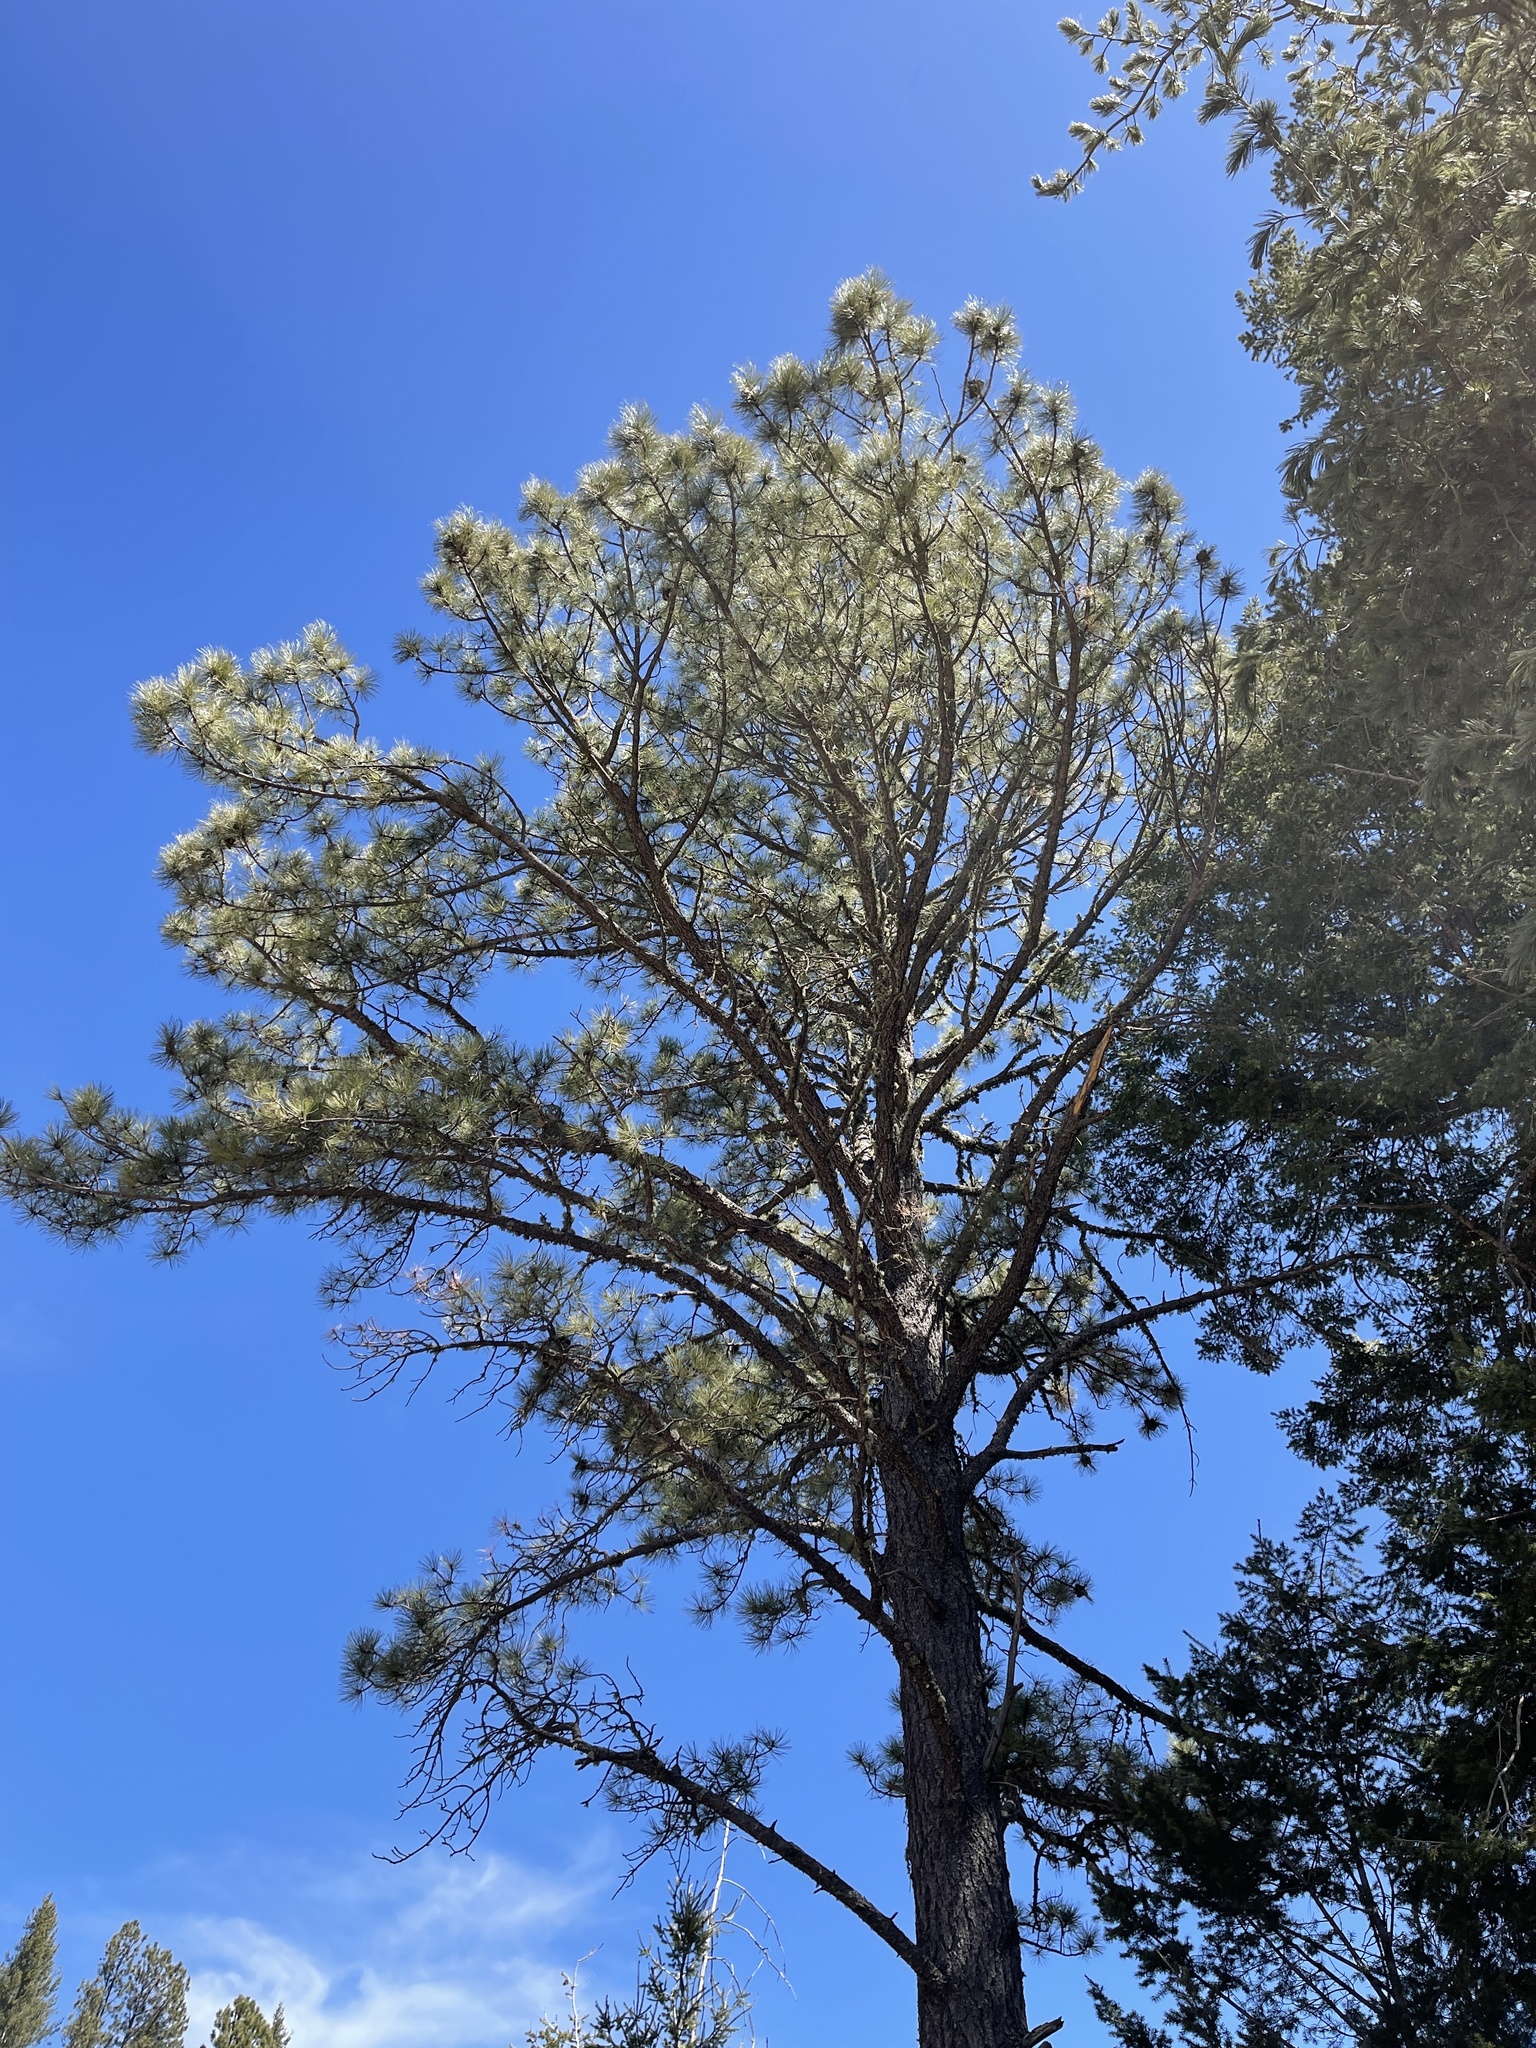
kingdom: Plantae
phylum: Tracheophyta
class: Pinopsida
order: Pinales
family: Pinaceae
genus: Pinus
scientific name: Pinus ponderosa
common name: Western yellow-pine
